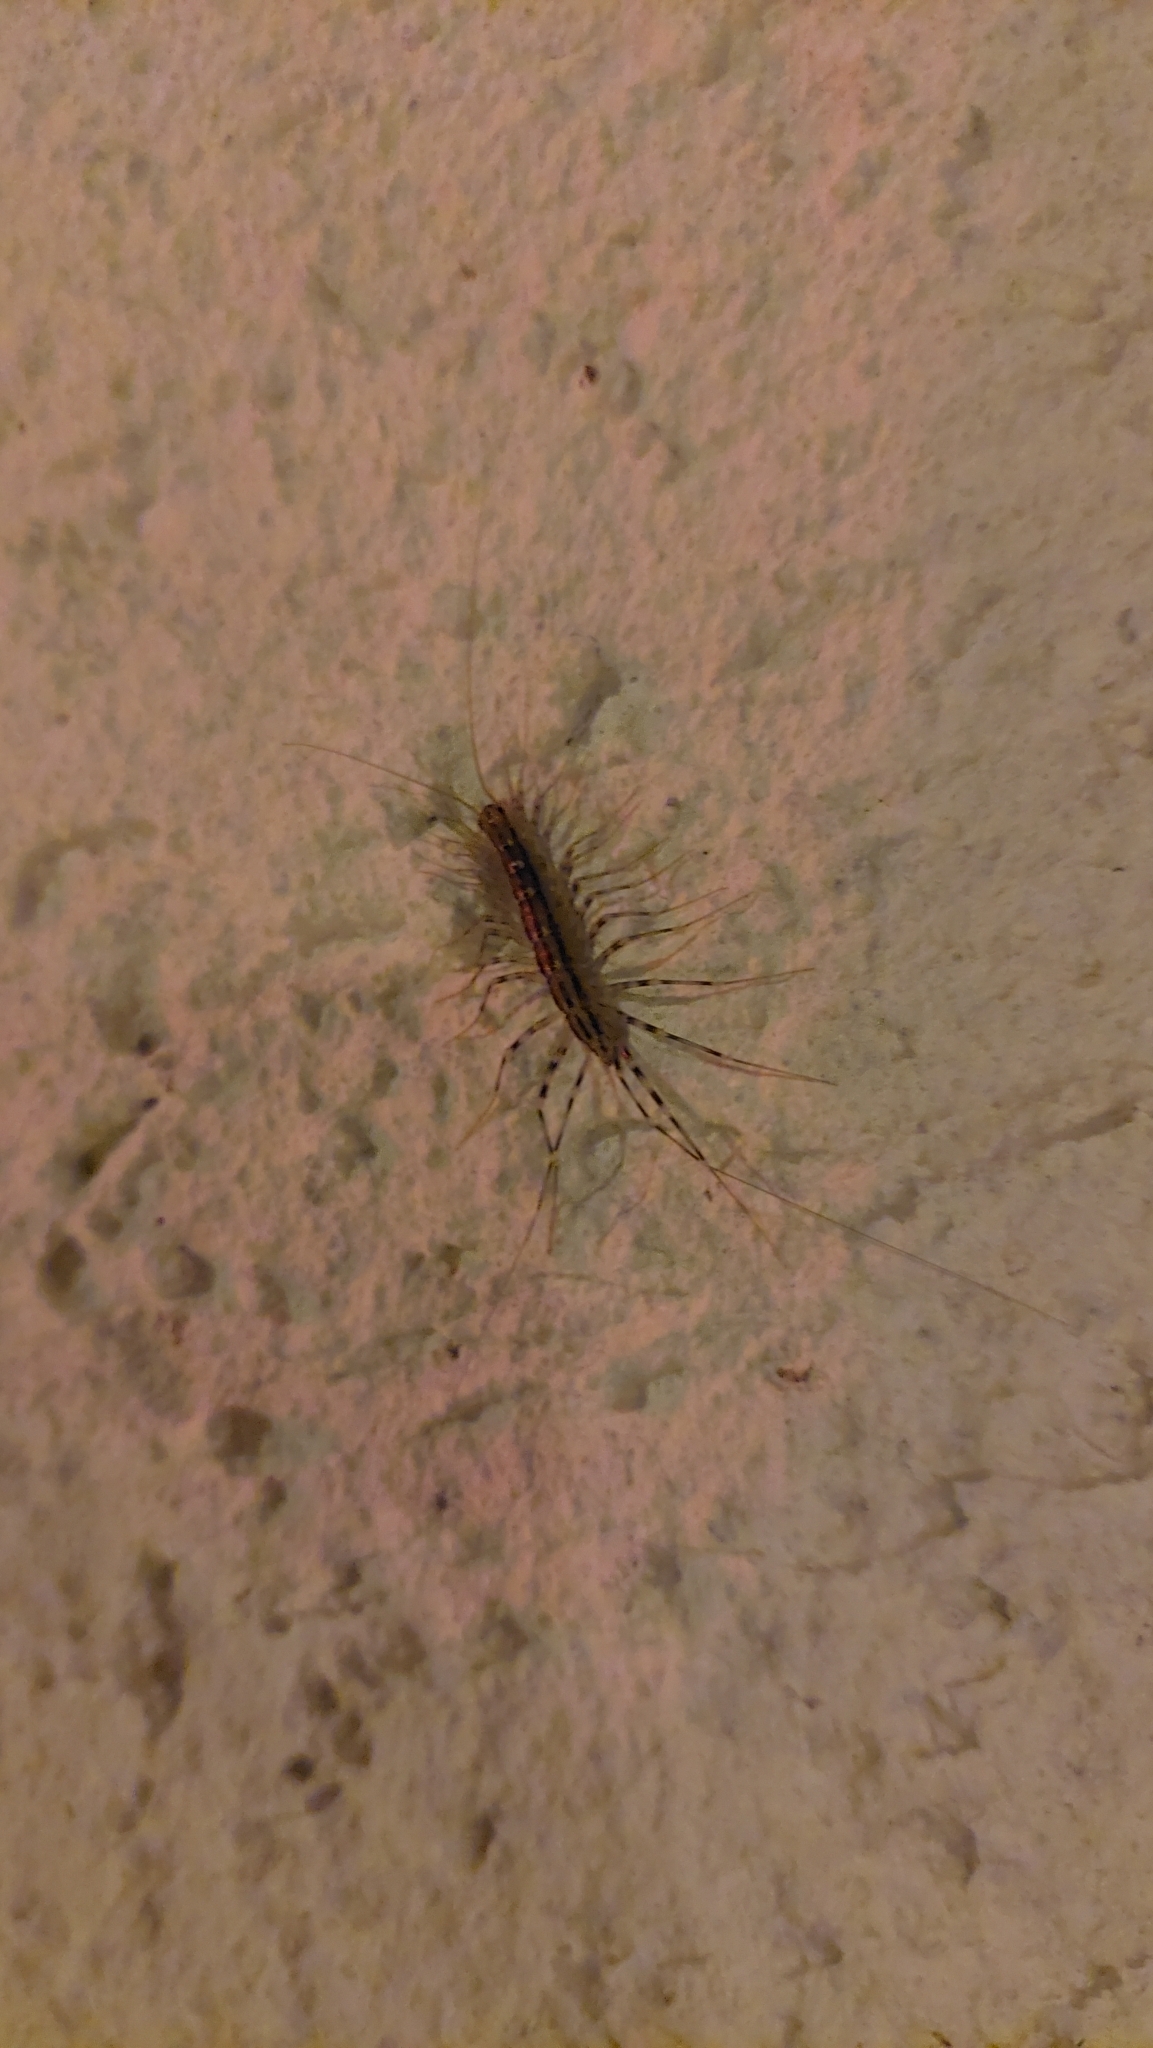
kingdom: Animalia
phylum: Arthropoda
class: Chilopoda
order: Scutigeromorpha
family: Scutigeridae
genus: Scutigera
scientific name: Scutigera coleoptrata
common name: House centipede
